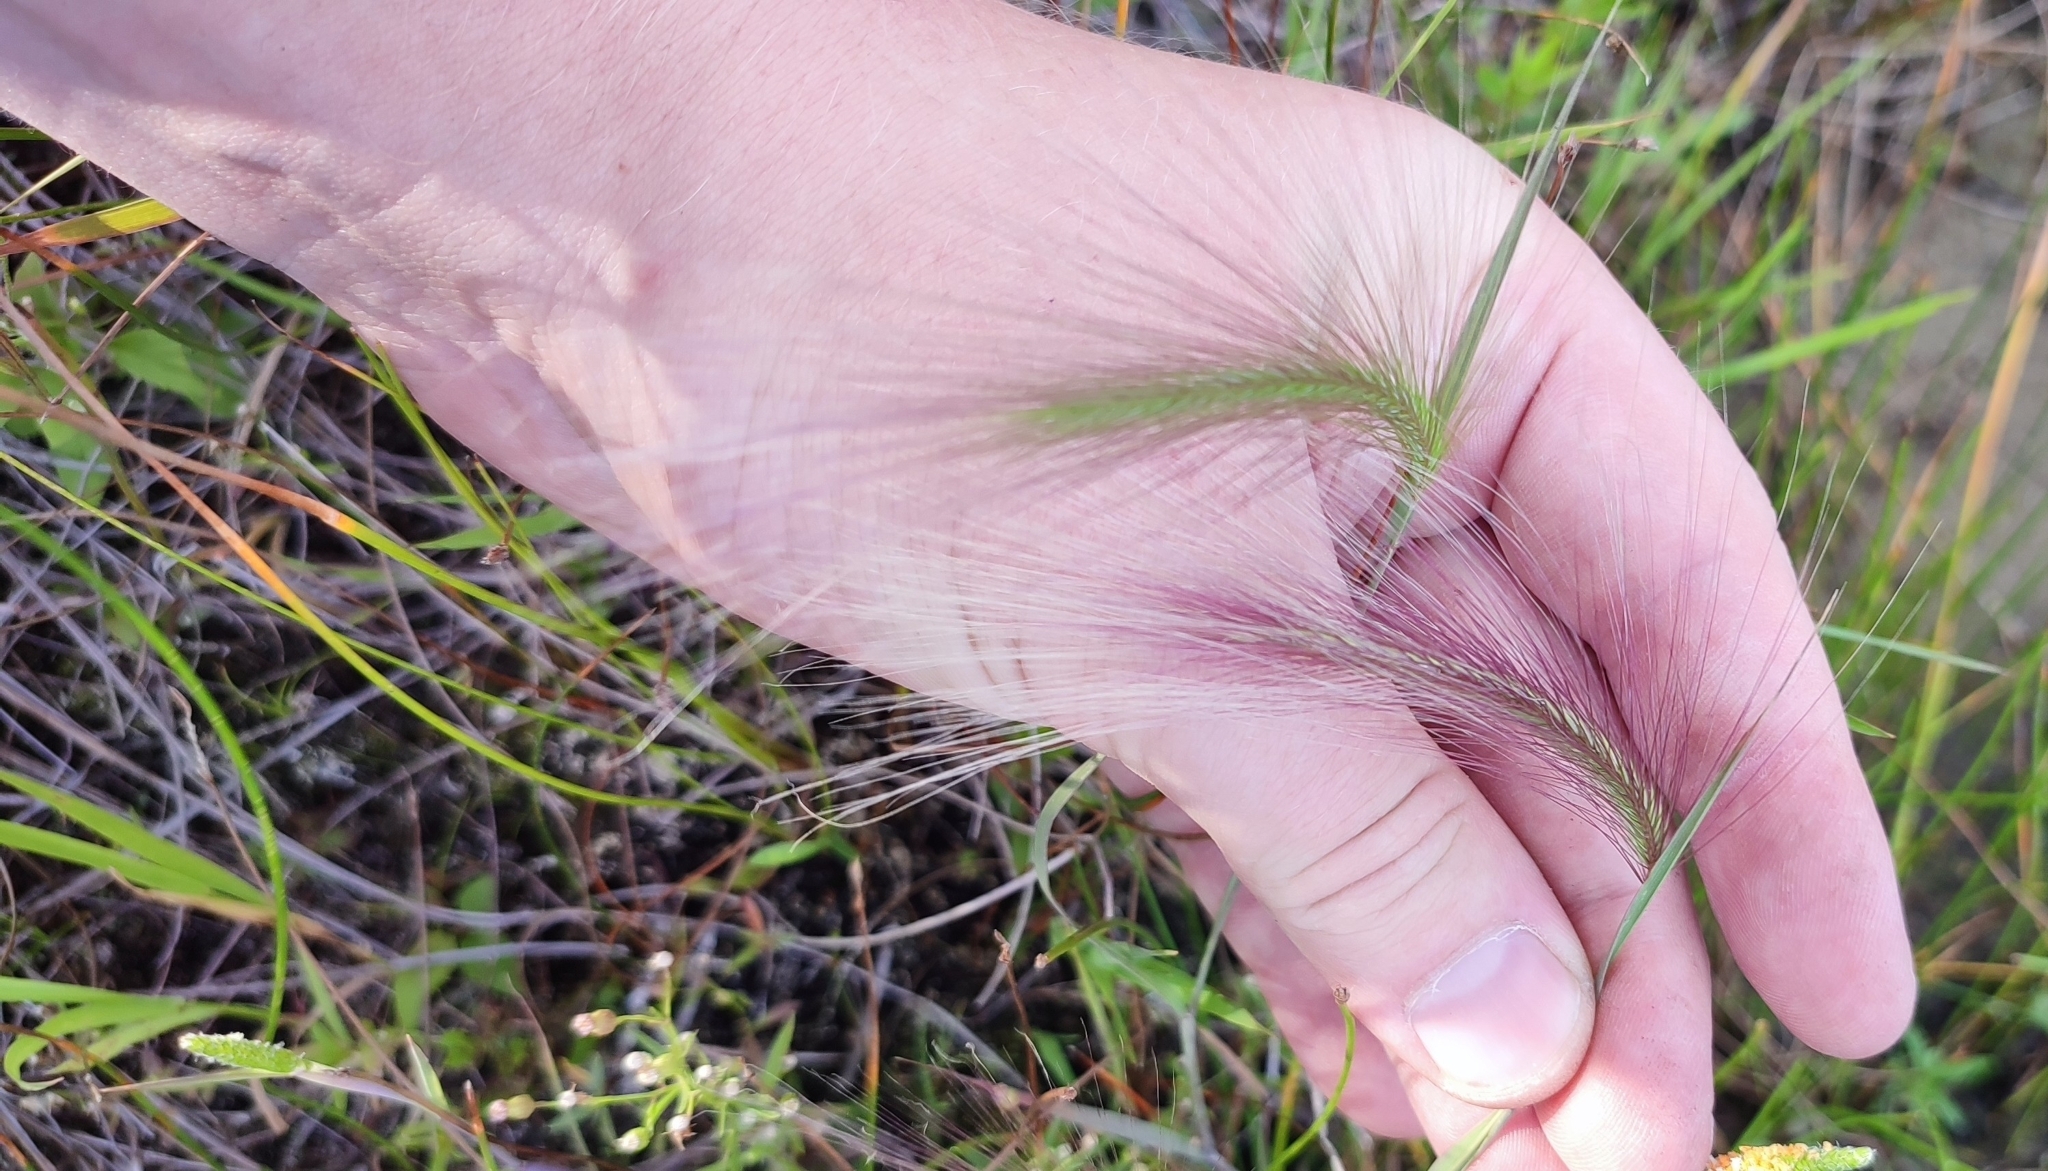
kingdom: Plantae
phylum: Tracheophyta
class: Liliopsida
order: Poales
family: Poaceae
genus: Hordeum
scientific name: Hordeum jubatum
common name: Foxtail barley
